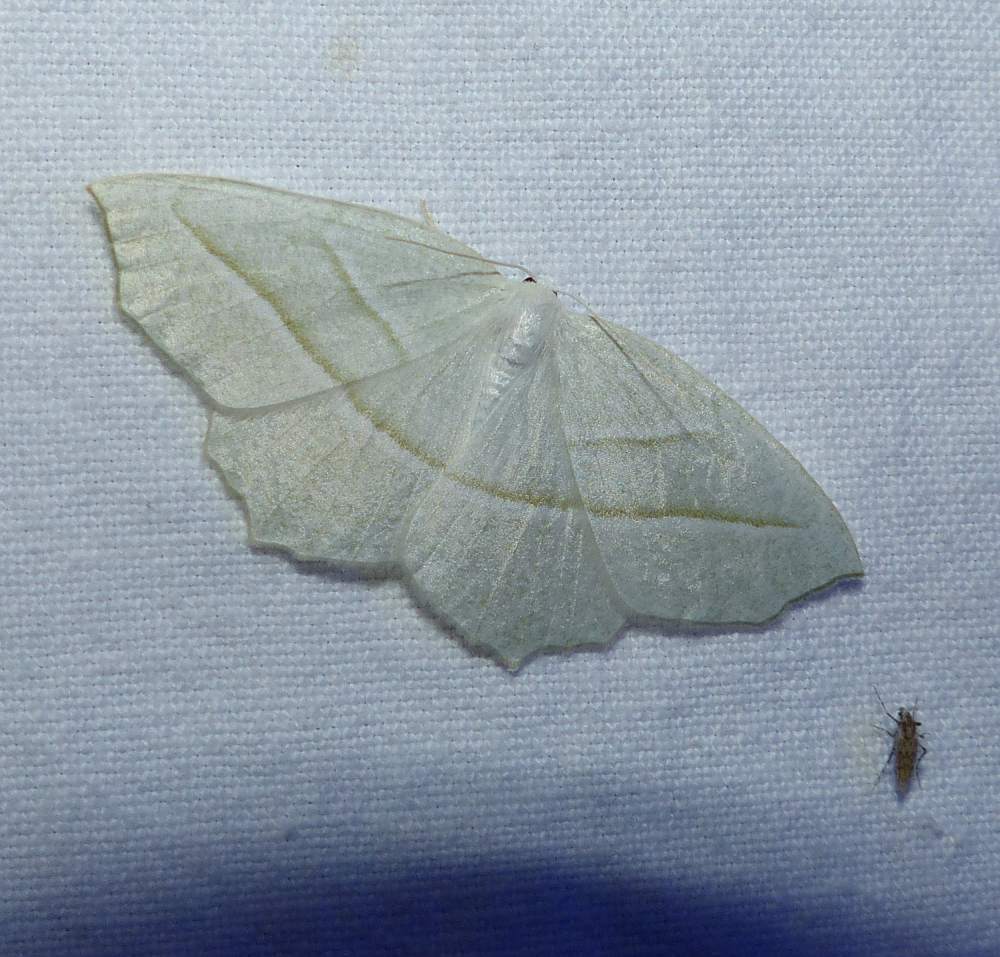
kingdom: Animalia
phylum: Arthropoda
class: Insecta
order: Lepidoptera
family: Geometridae
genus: Campaea
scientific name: Campaea perlata
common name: Fringed looper
